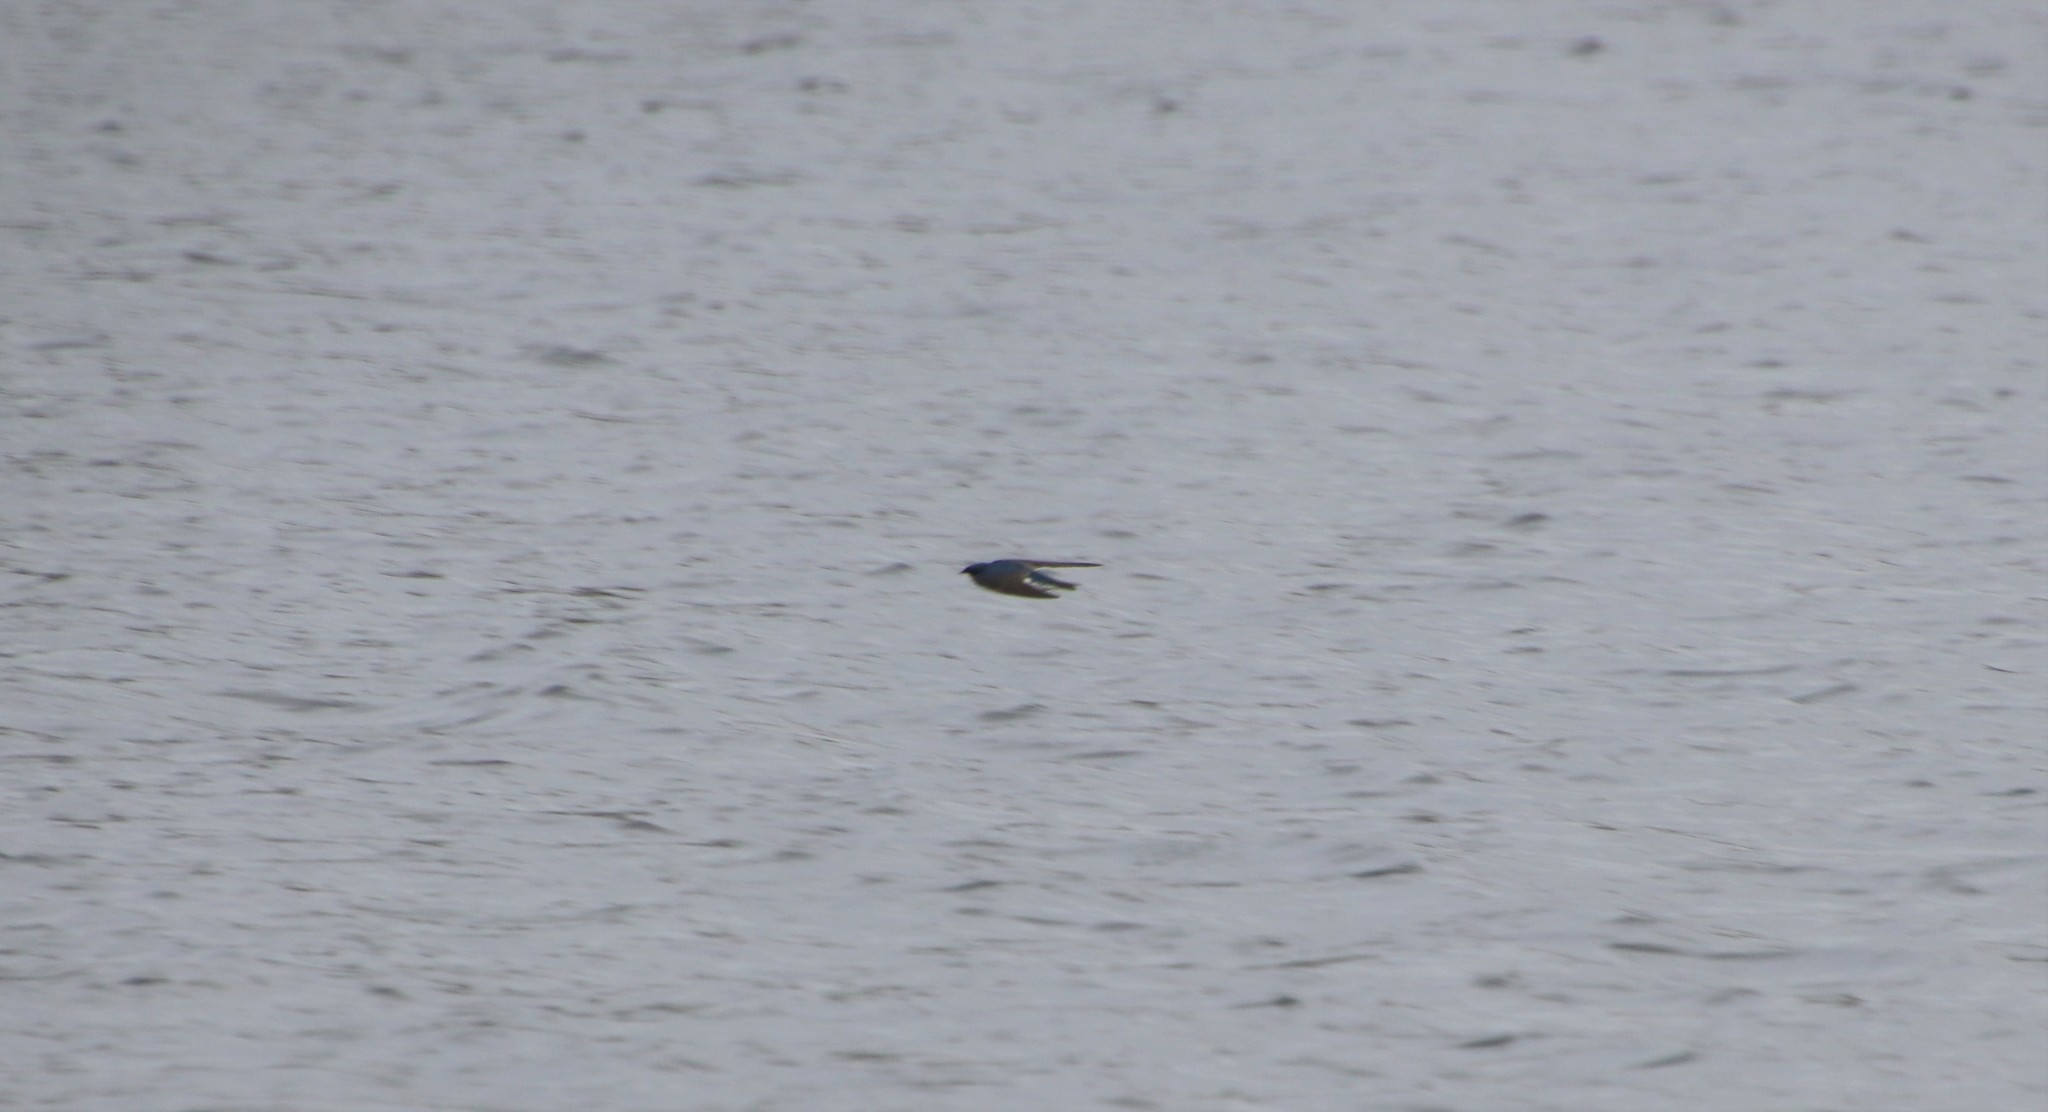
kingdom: Animalia
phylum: Chordata
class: Aves
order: Passeriformes
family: Hirundinidae
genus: Tachycineta
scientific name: Tachycineta bicolor
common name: Tree swallow
